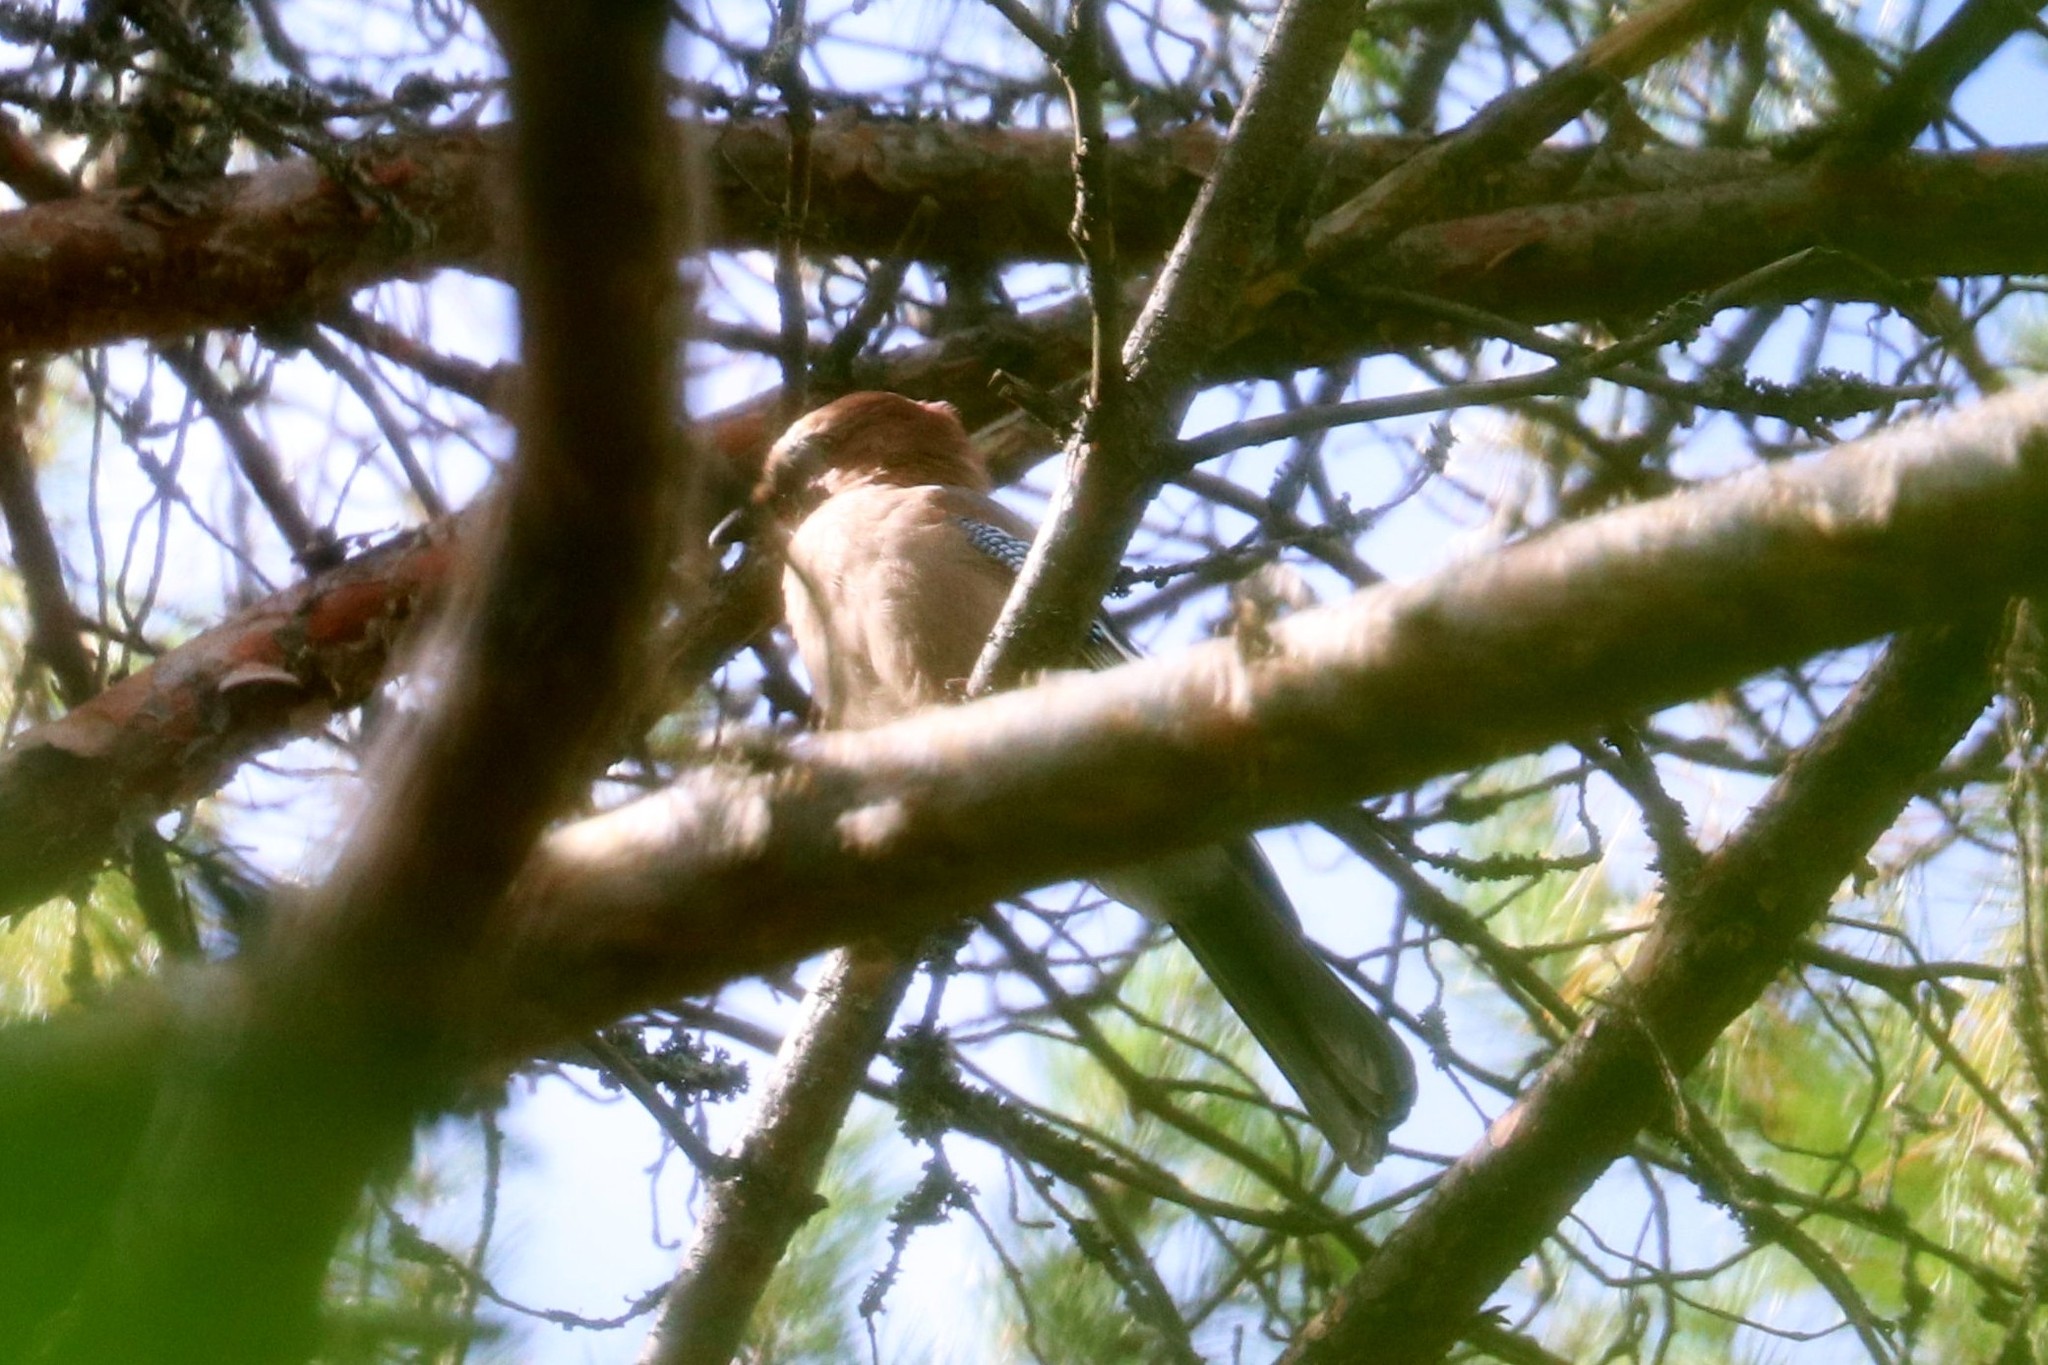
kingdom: Animalia
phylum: Chordata
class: Aves
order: Passeriformes
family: Corvidae
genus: Garrulus
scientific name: Garrulus glandarius
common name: Eurasian jay
